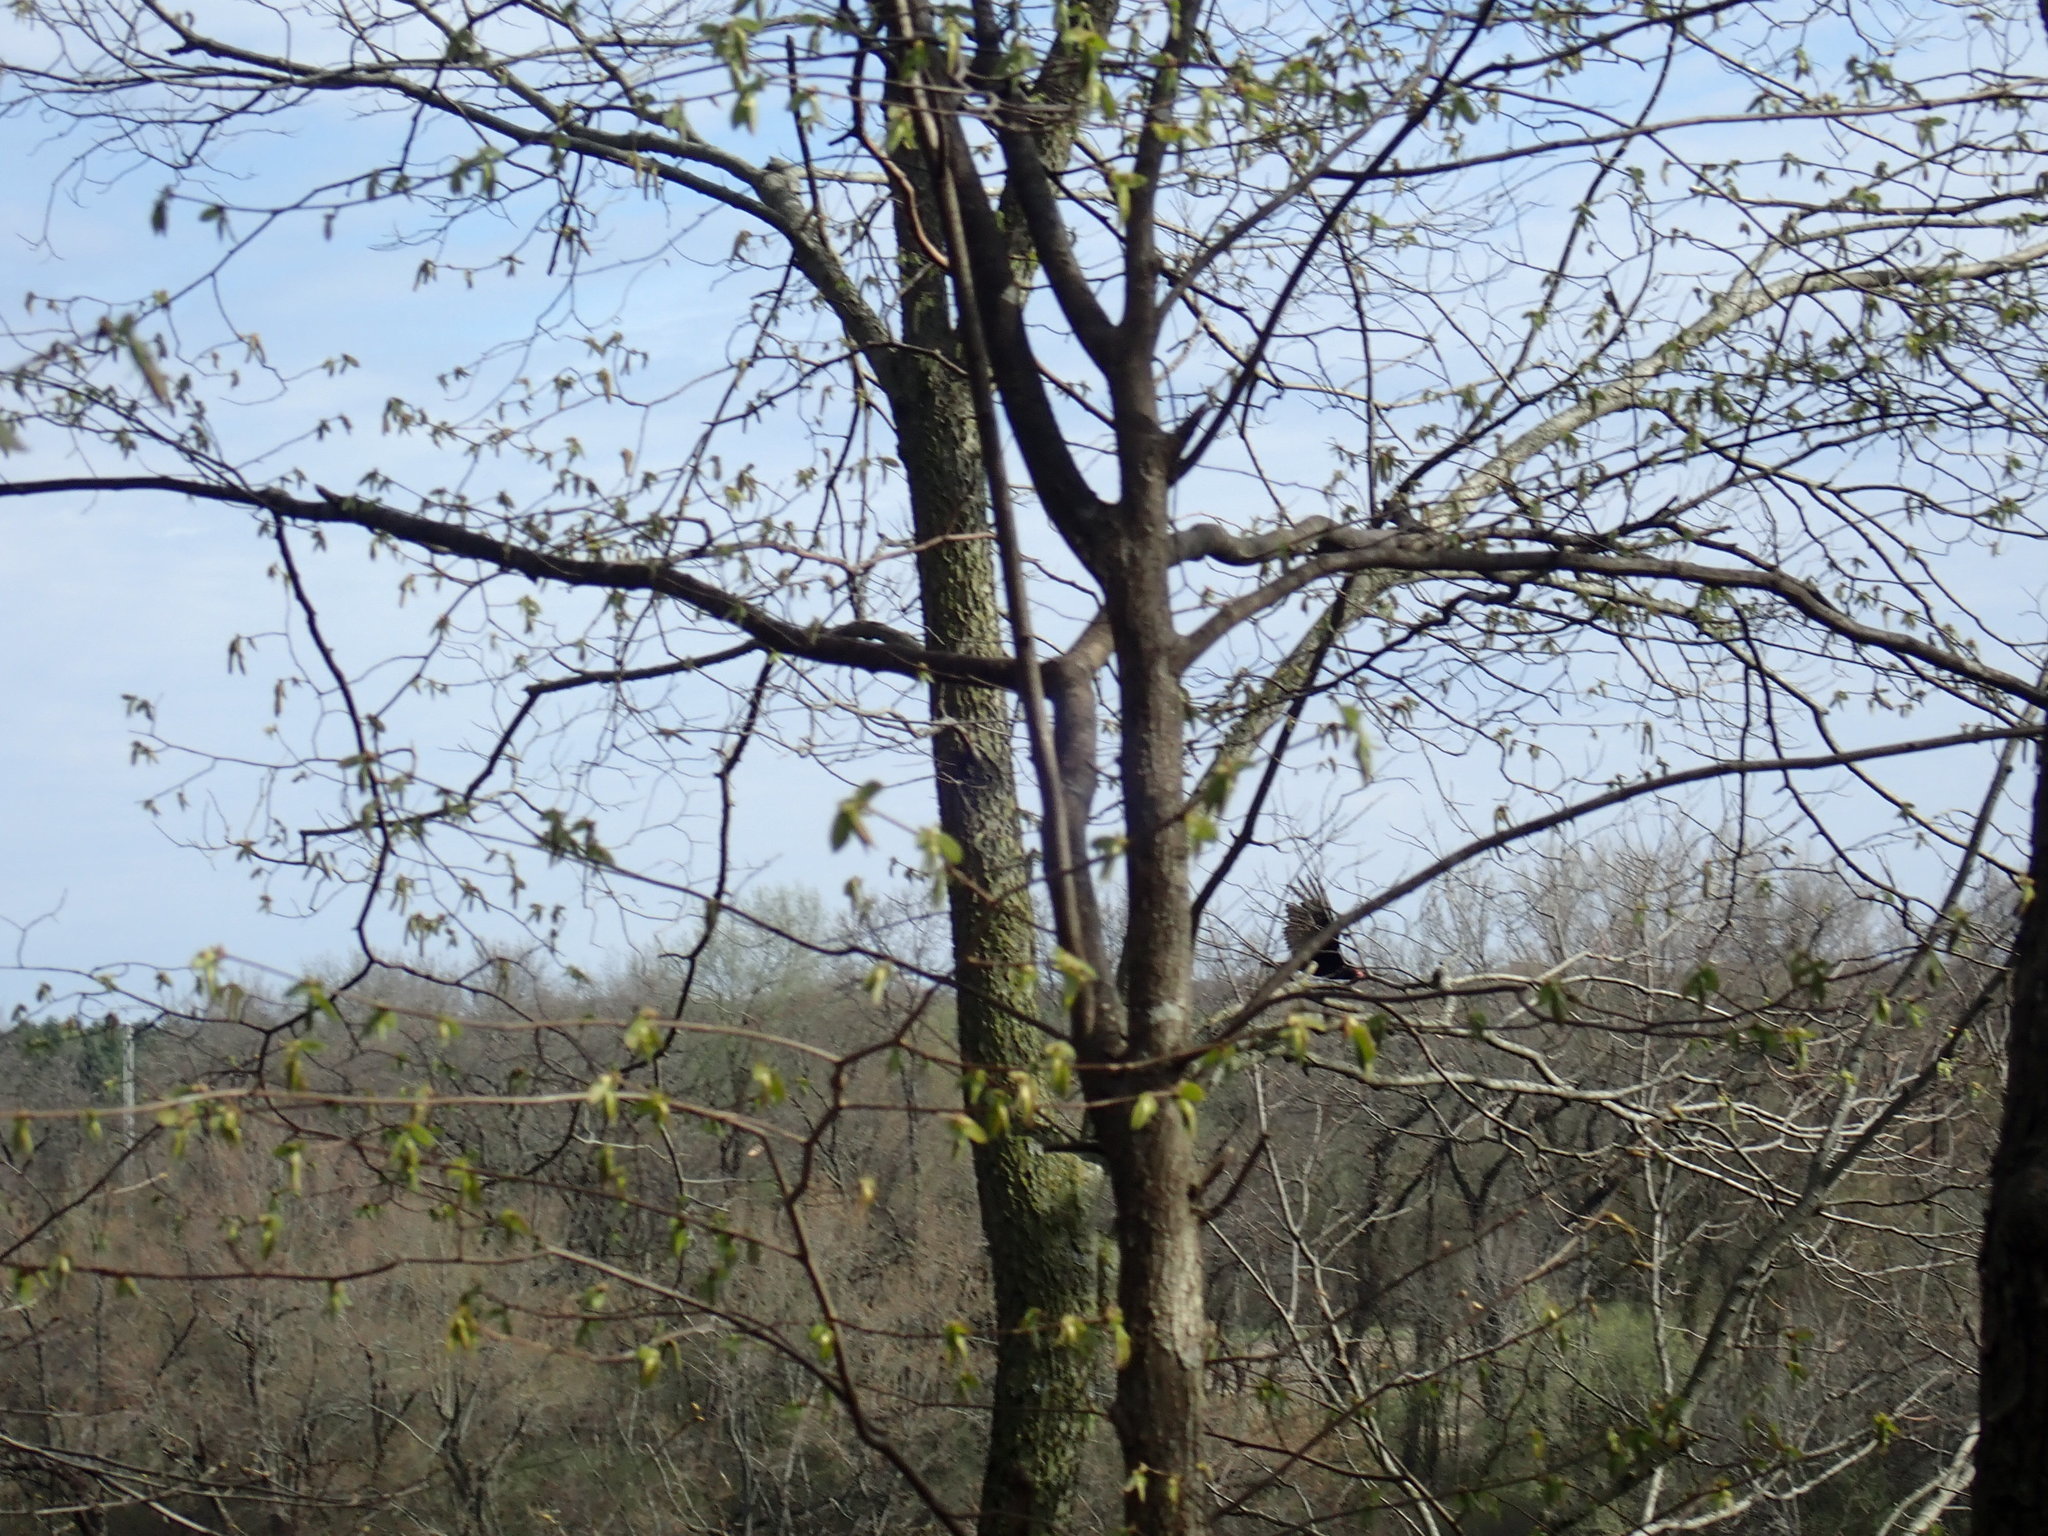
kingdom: Animalia
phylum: Chordata
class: Aves
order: Accipitriformes
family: Cathartidae
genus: Cathartes
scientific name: Cathartes aura
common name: Turkey vulture
